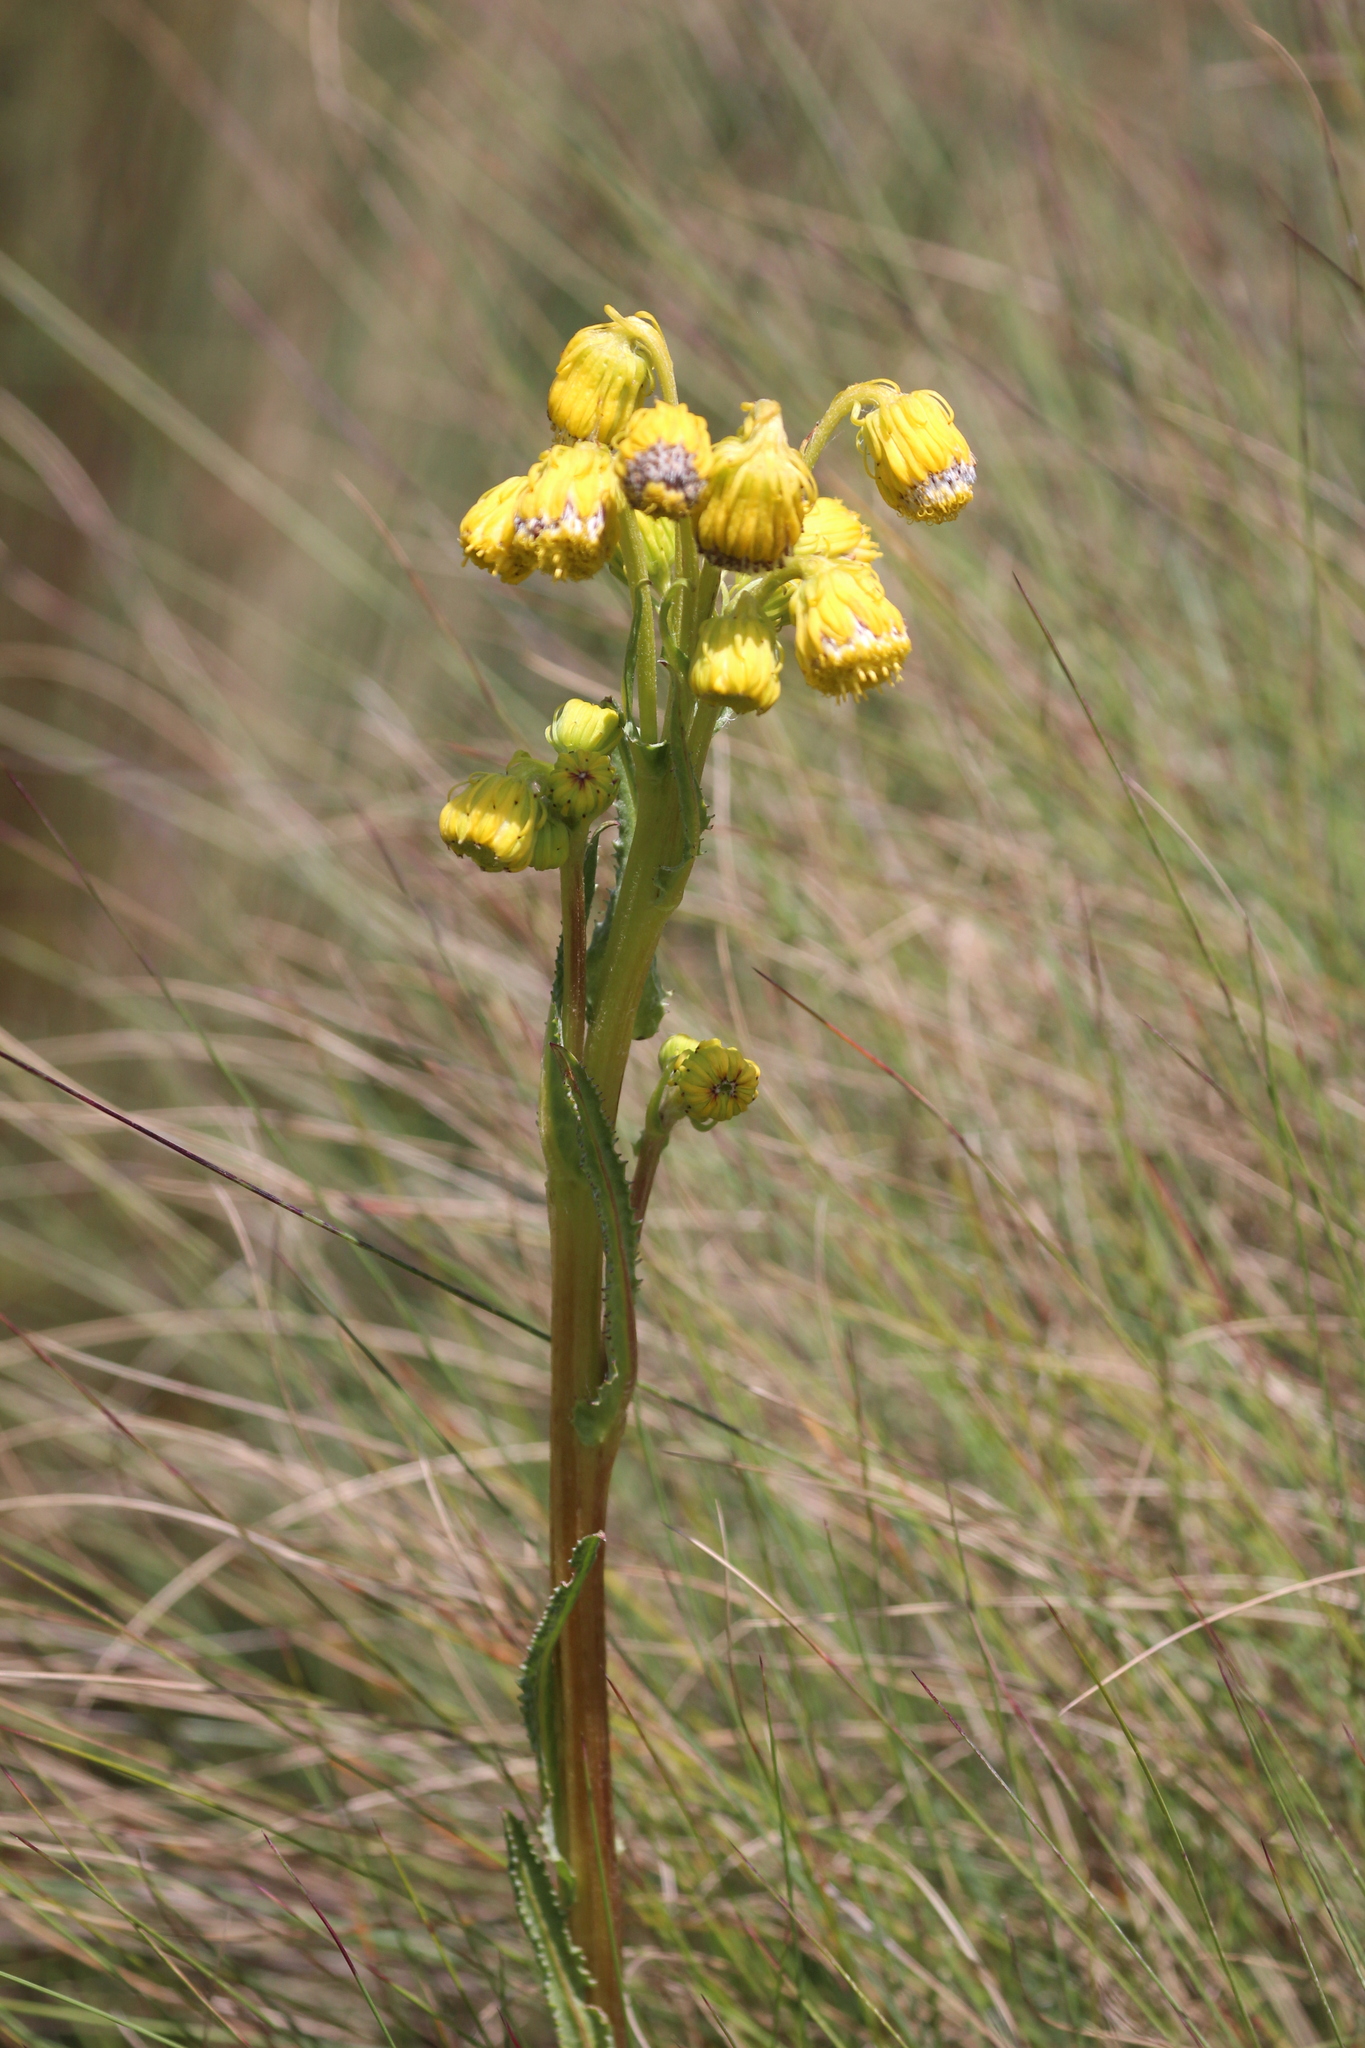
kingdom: Plantae
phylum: Tracheophyta
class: Magnoliopsida
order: Asterales
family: Asteraceae
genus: Senecio
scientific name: Senecio chionogeton
